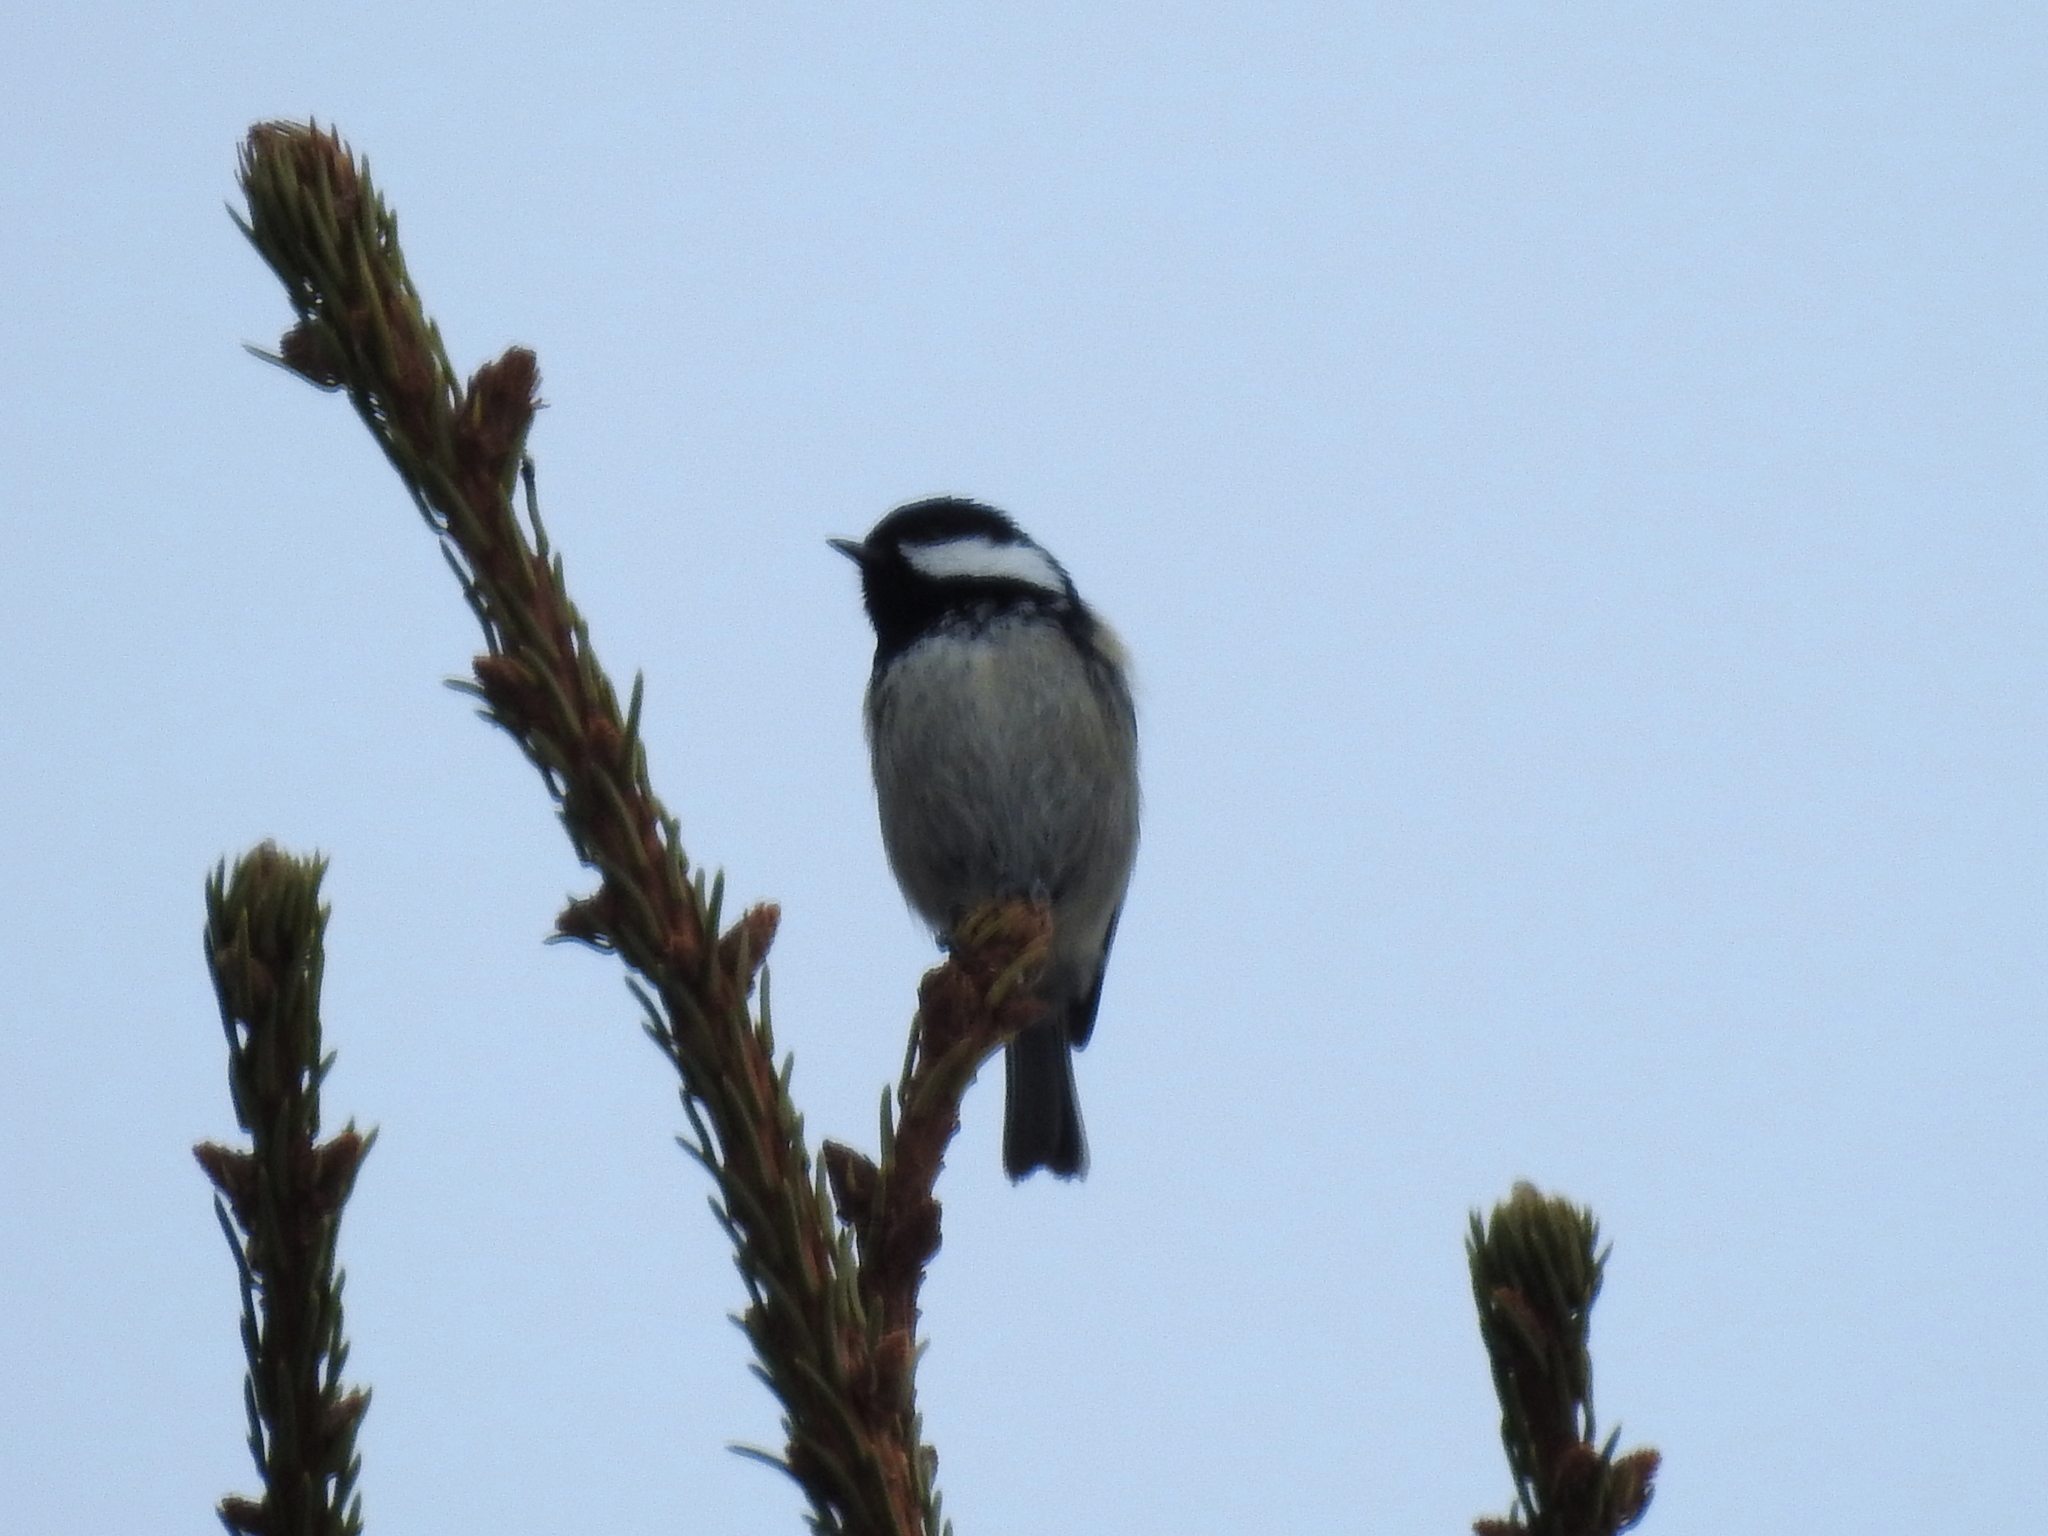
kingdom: Animalia
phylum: Chordata
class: Aves
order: Passeriformes
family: Paridae
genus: Periparus
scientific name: Periparus ater
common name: Coal tit
